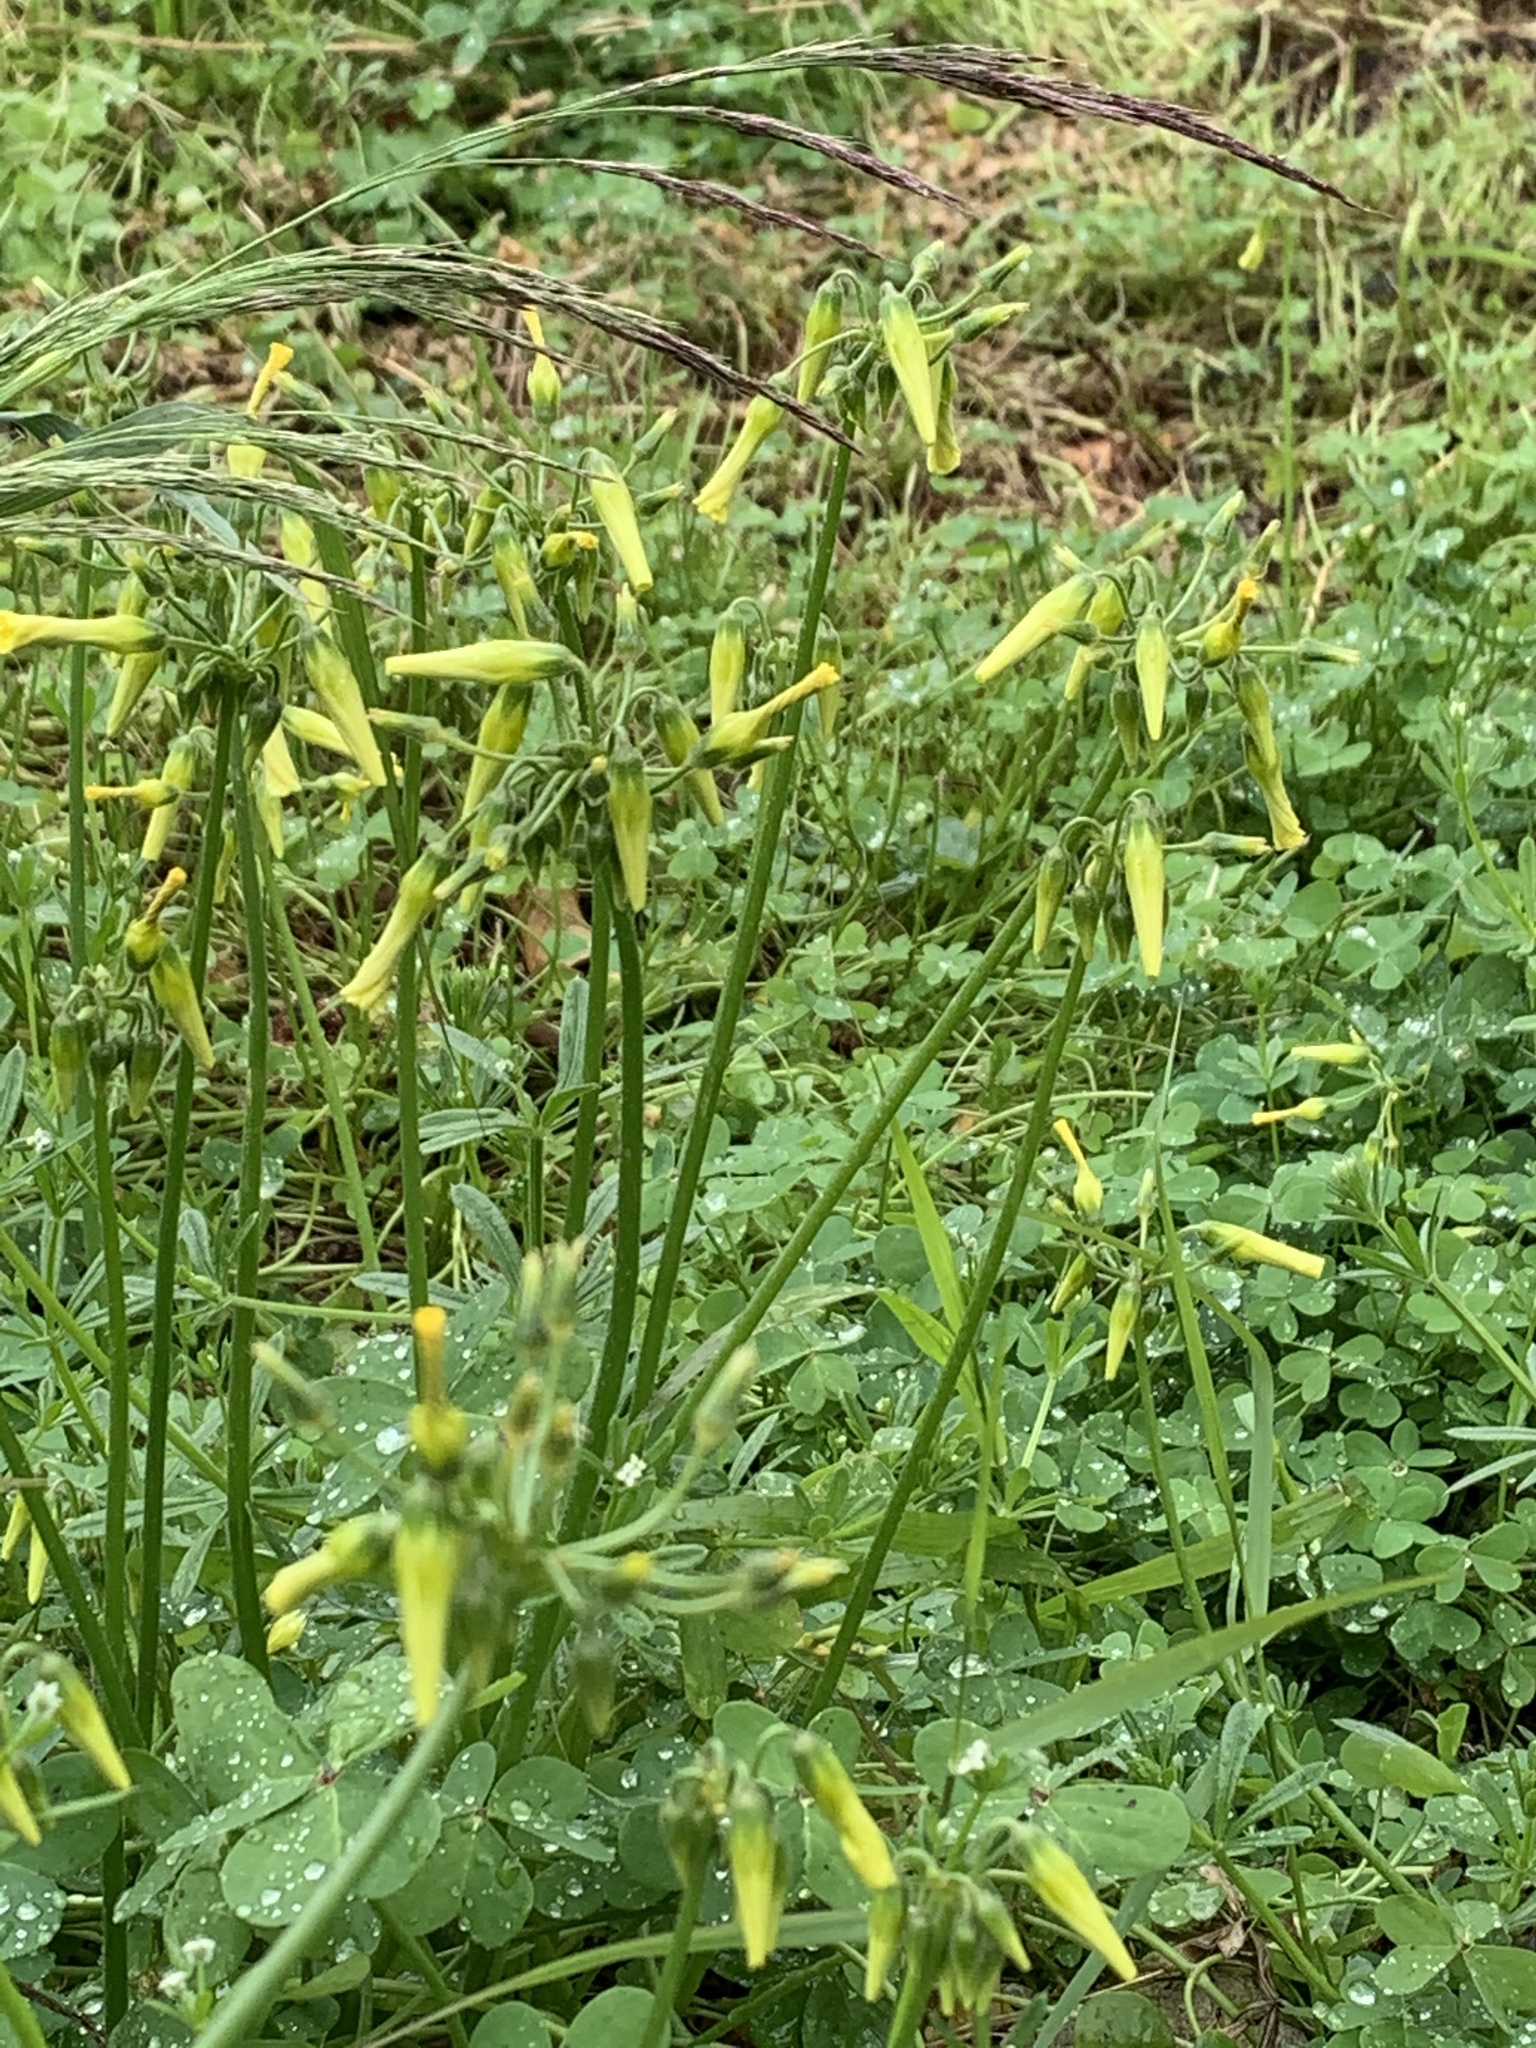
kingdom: Plantae
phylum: Tracheophyta
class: Magnoliopsida
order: Oxalidales
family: Oxalidaceae
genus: Oxalis
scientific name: Oxalis pes-caprae
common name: Bermuda-buttercup
